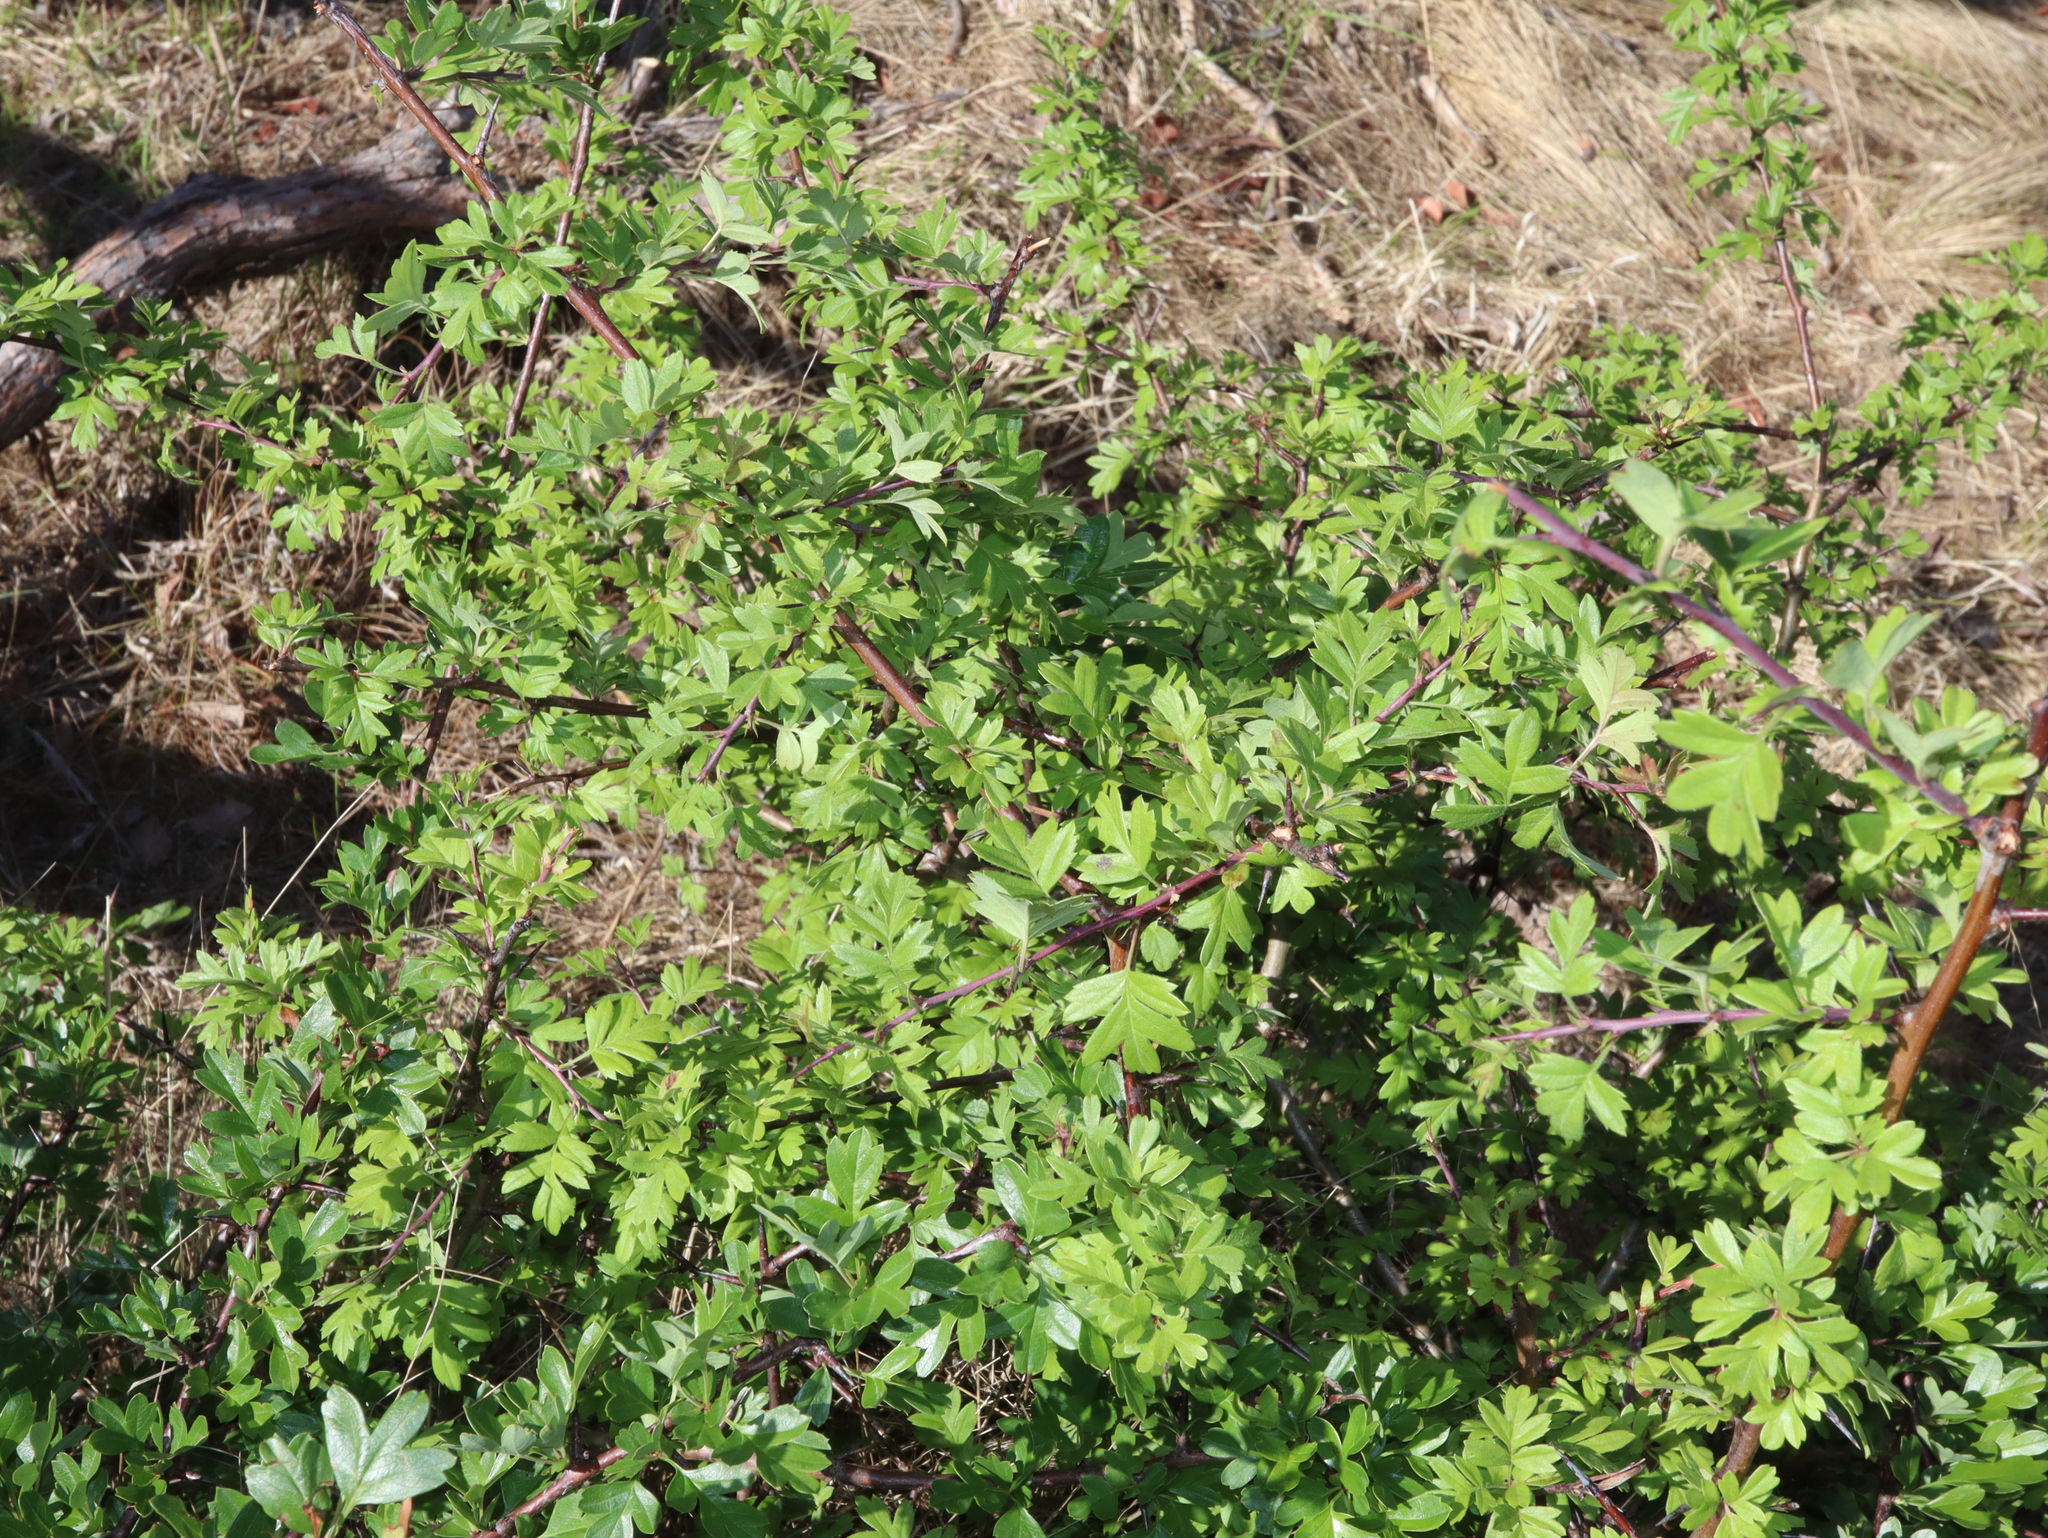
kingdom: Plantae
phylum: Tracheophyta
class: Magnoliopsida
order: Rosales
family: Rosaceae
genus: Crataegus
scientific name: Crataegus monogyna
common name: Hawthorn
